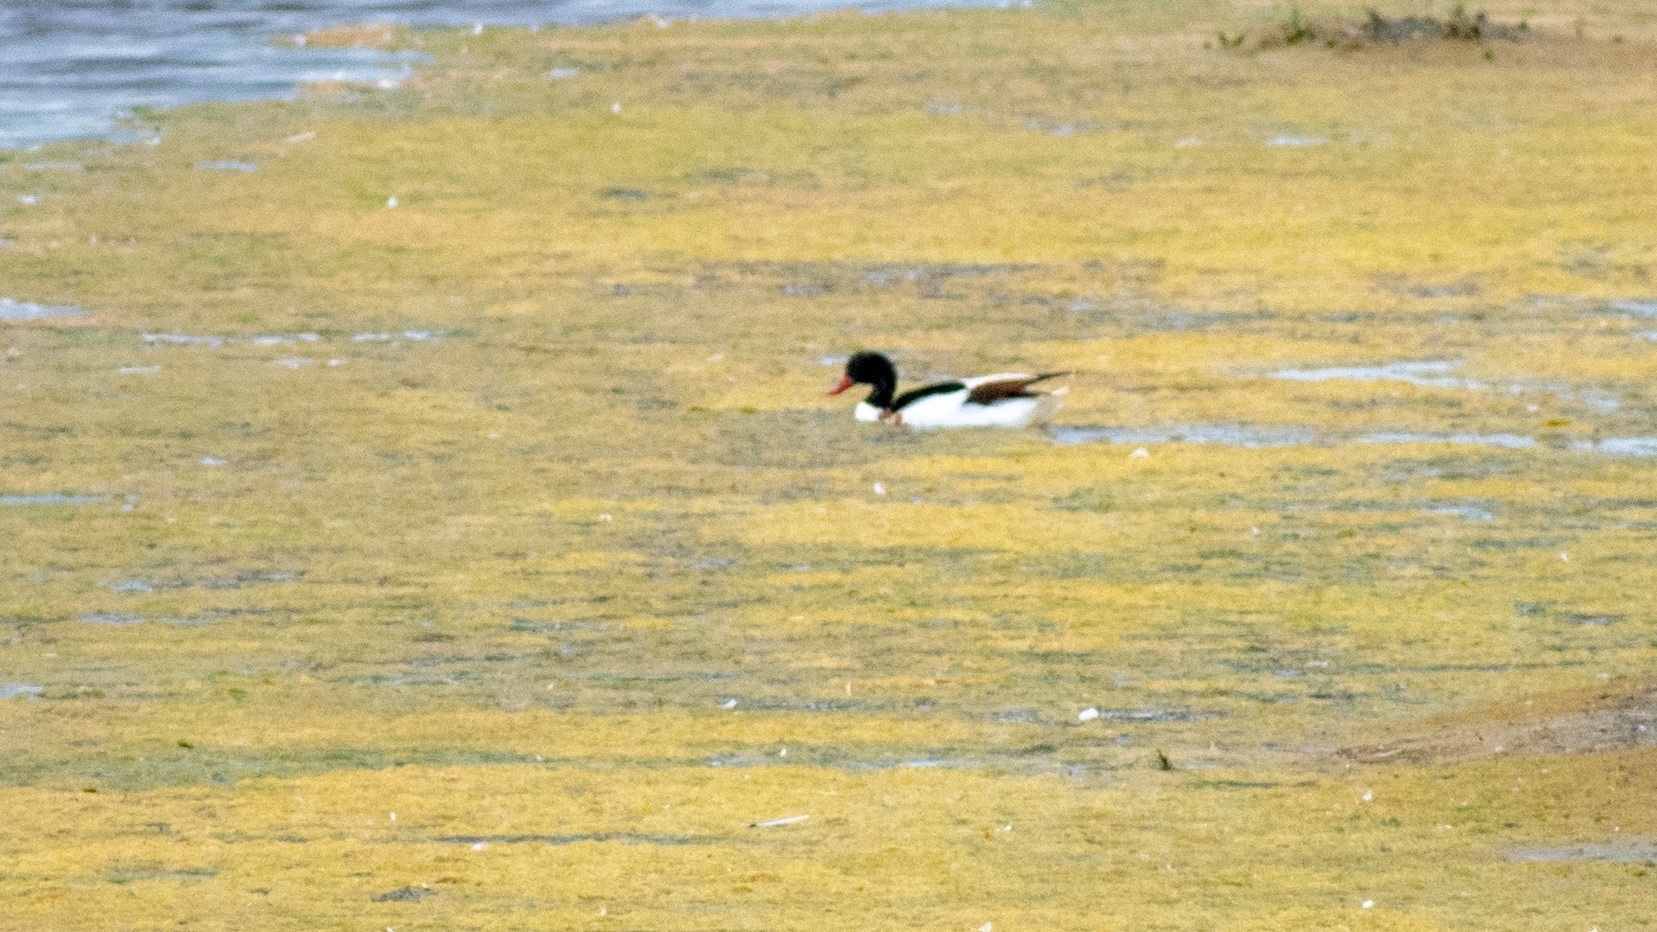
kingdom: Animalia
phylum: Chordata
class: Aves
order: Anseriformes
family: Anatidae
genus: Tadorna
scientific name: Tadorna tadorna
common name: Common shelduck
